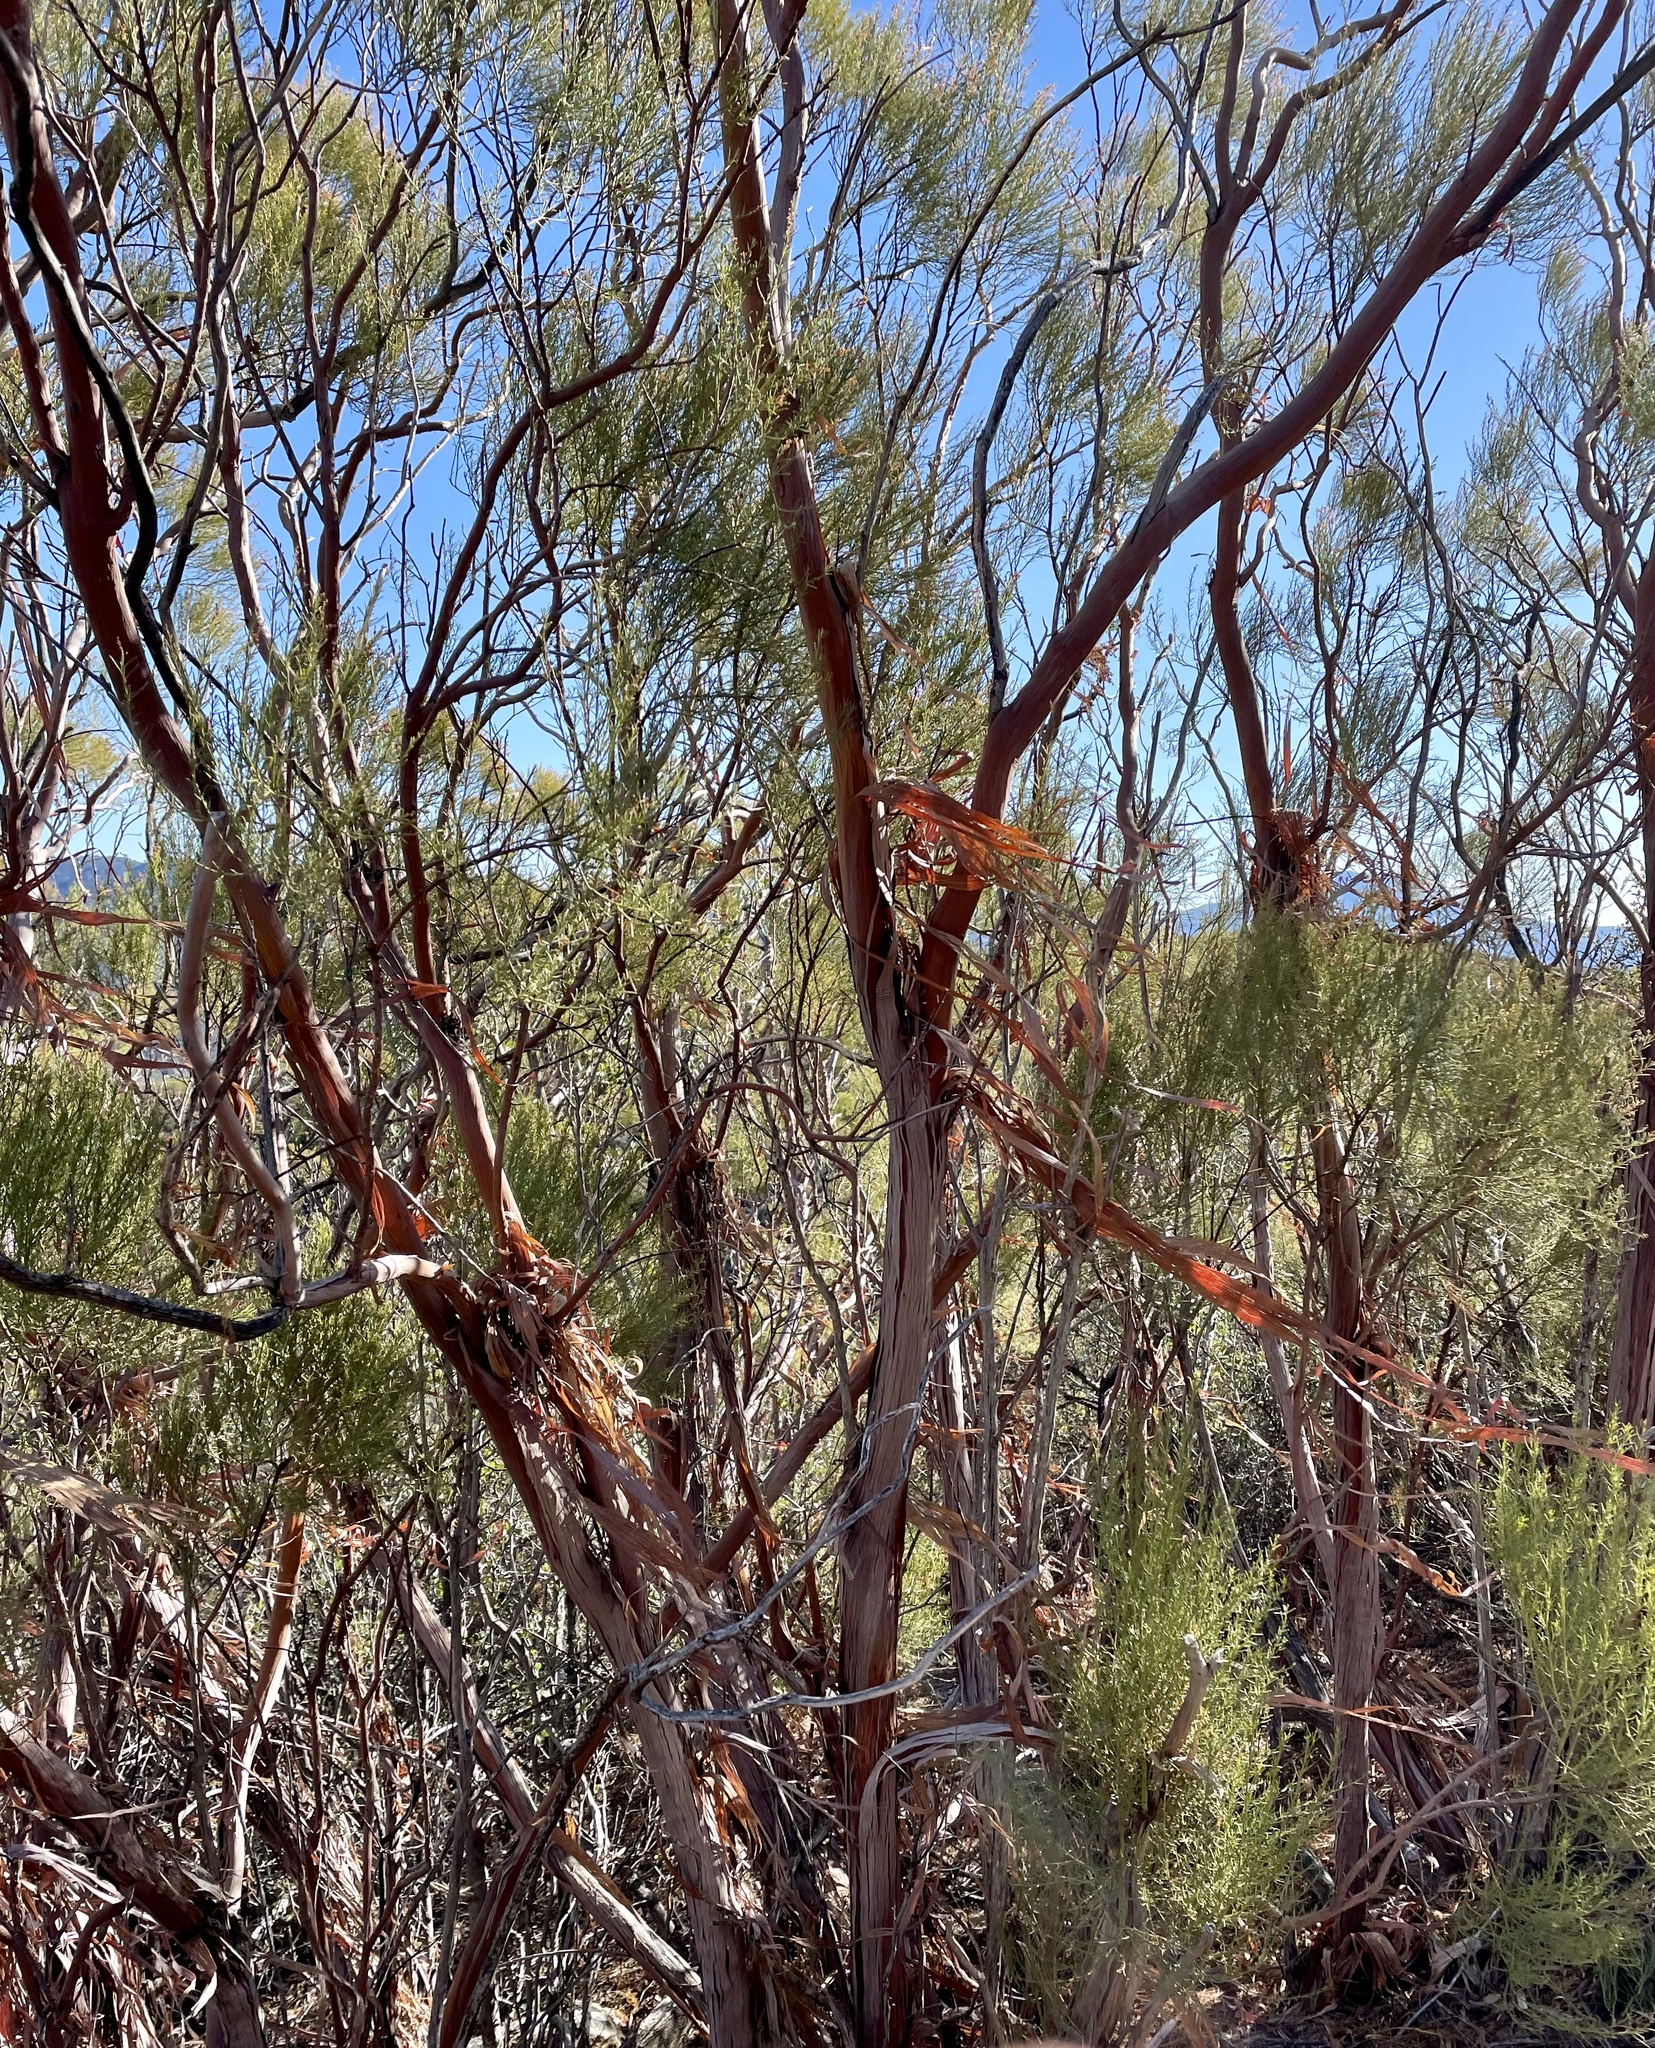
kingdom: Plantae
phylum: Tracheophyta
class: Magnoliopsida
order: Rosales
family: Rosaceae
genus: Adenostoma
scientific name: Adenostoma sparsifolium
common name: Red shank
